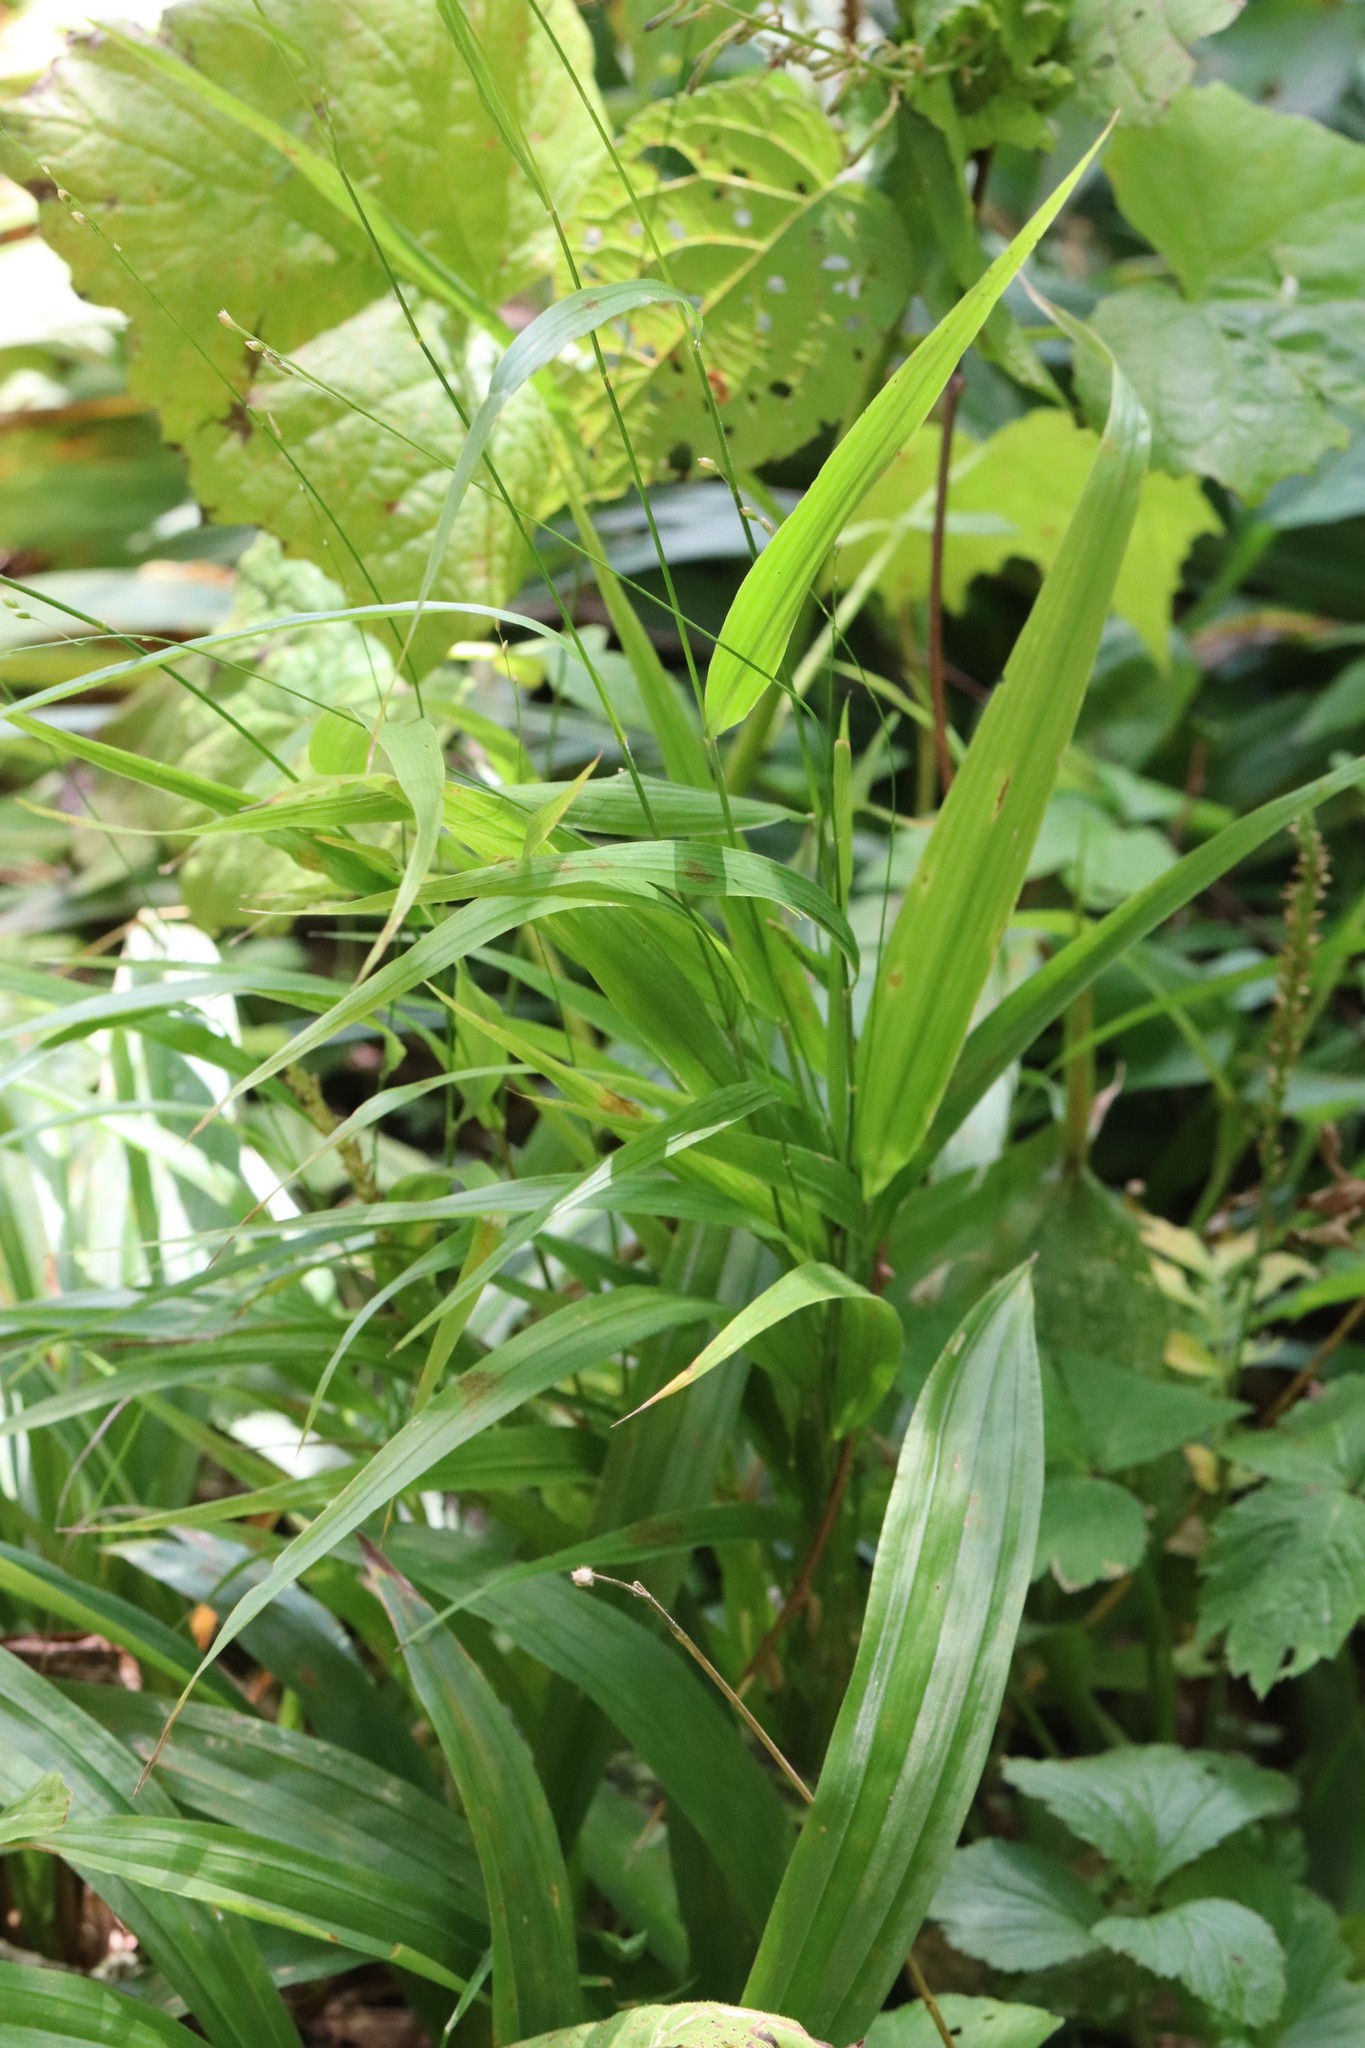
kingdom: Plantae
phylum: Tracheophyta
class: Liliopsida
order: Poales
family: Poaceae
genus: Diarrhena
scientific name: Diarrhena mandshurica
